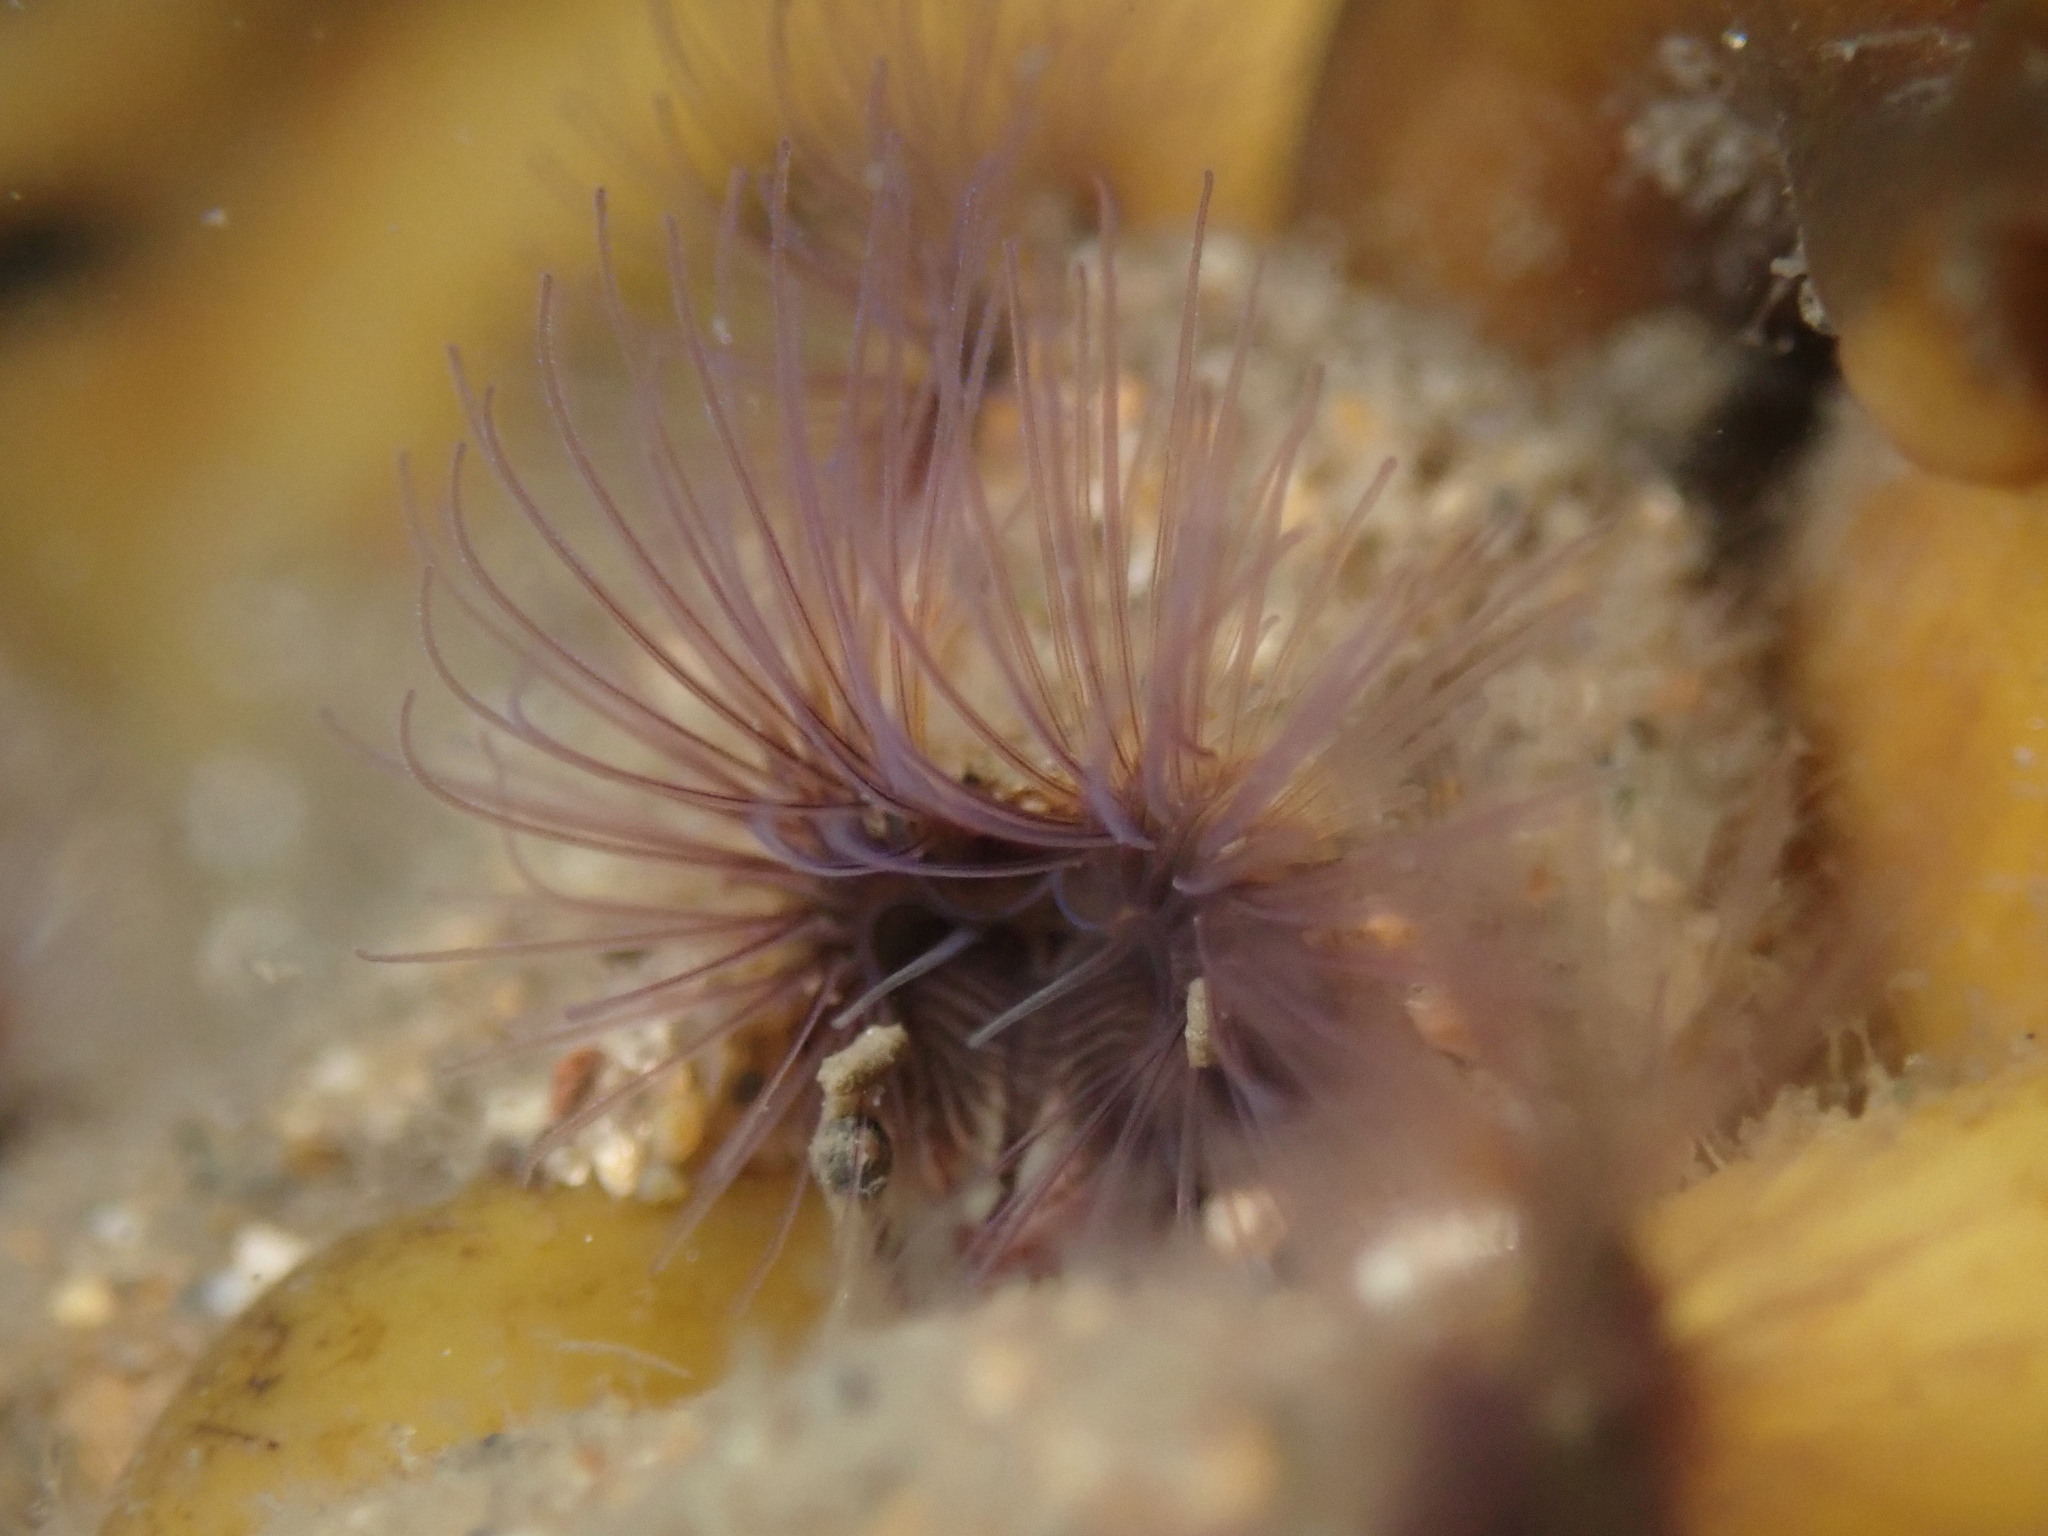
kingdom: Animalia
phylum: Annelida
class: Polychaeta
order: Sabellida
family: Sabellariidae
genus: Phragmatopoma
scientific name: Phragmatopoma californica
